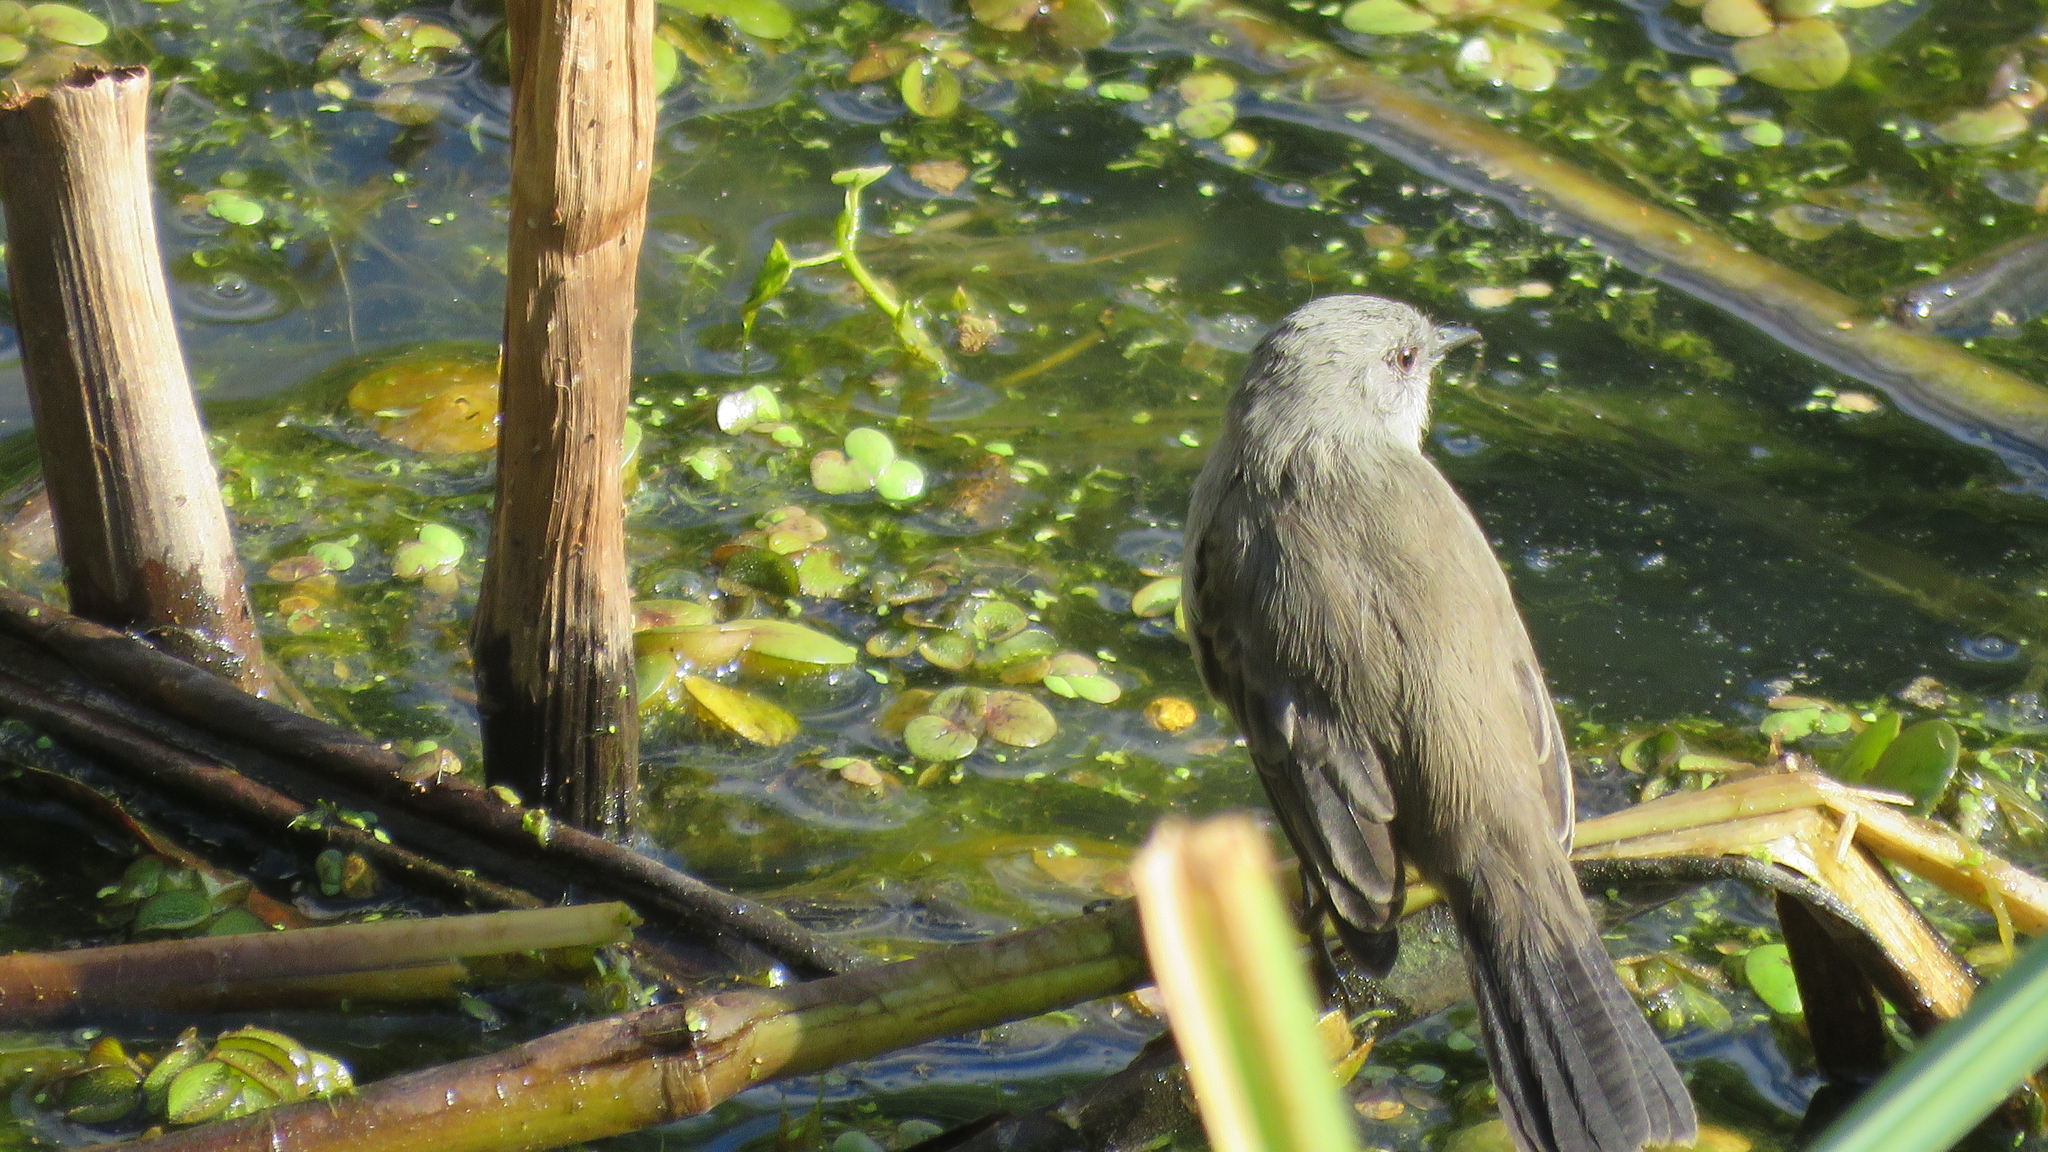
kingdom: Animalia
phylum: Chordata
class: Aves
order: Passeriformes
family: Tyrannidae
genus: Serpophaga
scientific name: Serpophaga nigricans
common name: Sooty tyrannulet
